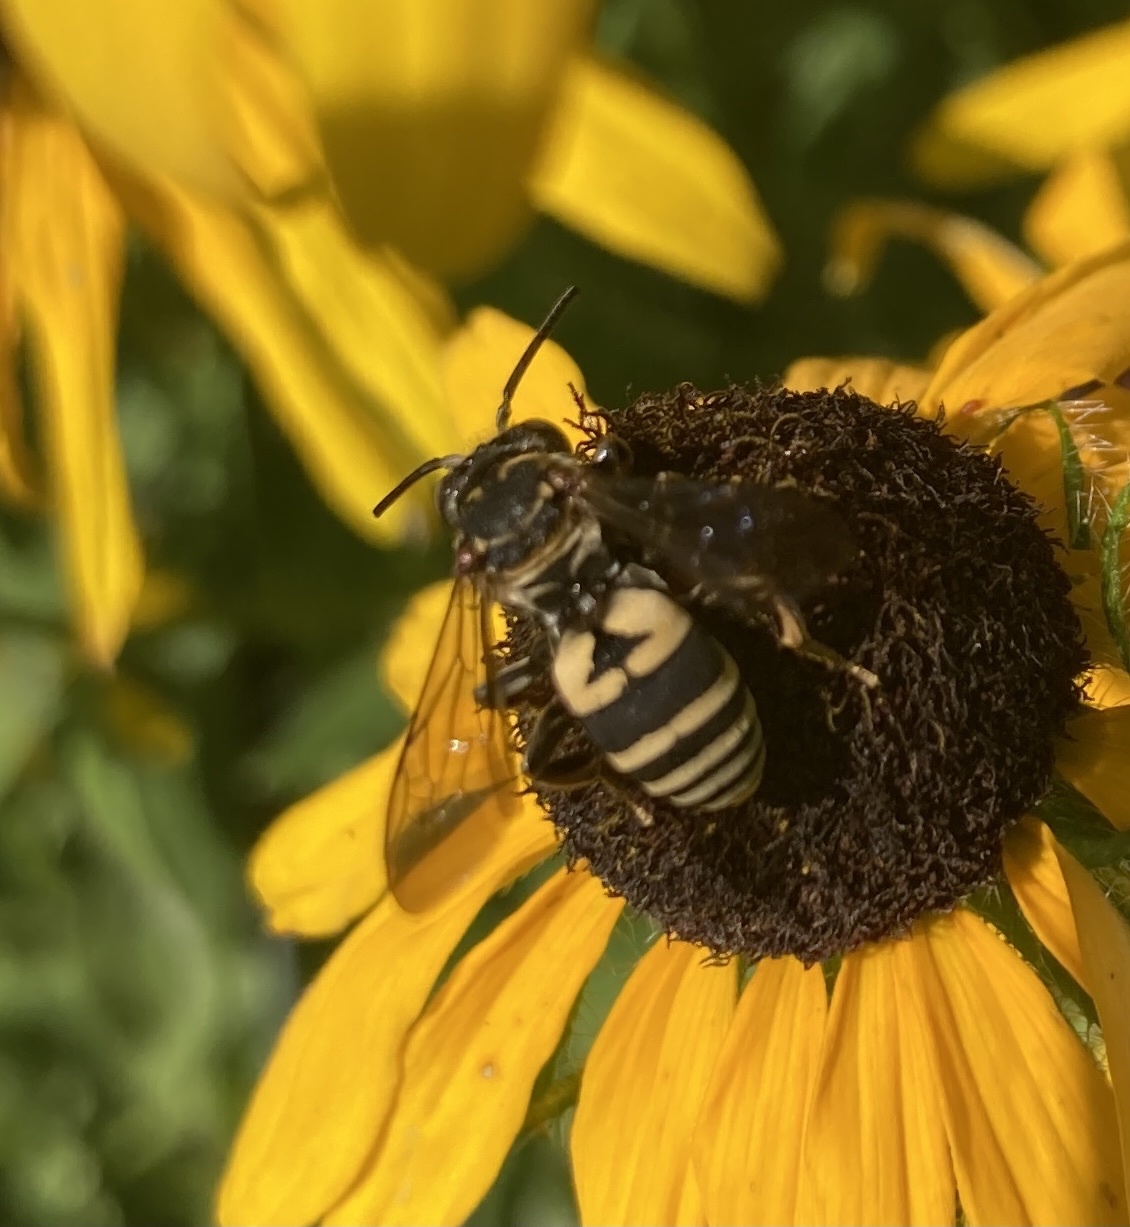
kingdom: Animalia
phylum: Arthropoda
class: Insecta
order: Hymenoptera
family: Apidae
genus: Triepeolus
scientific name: Triepeolus lunatus
